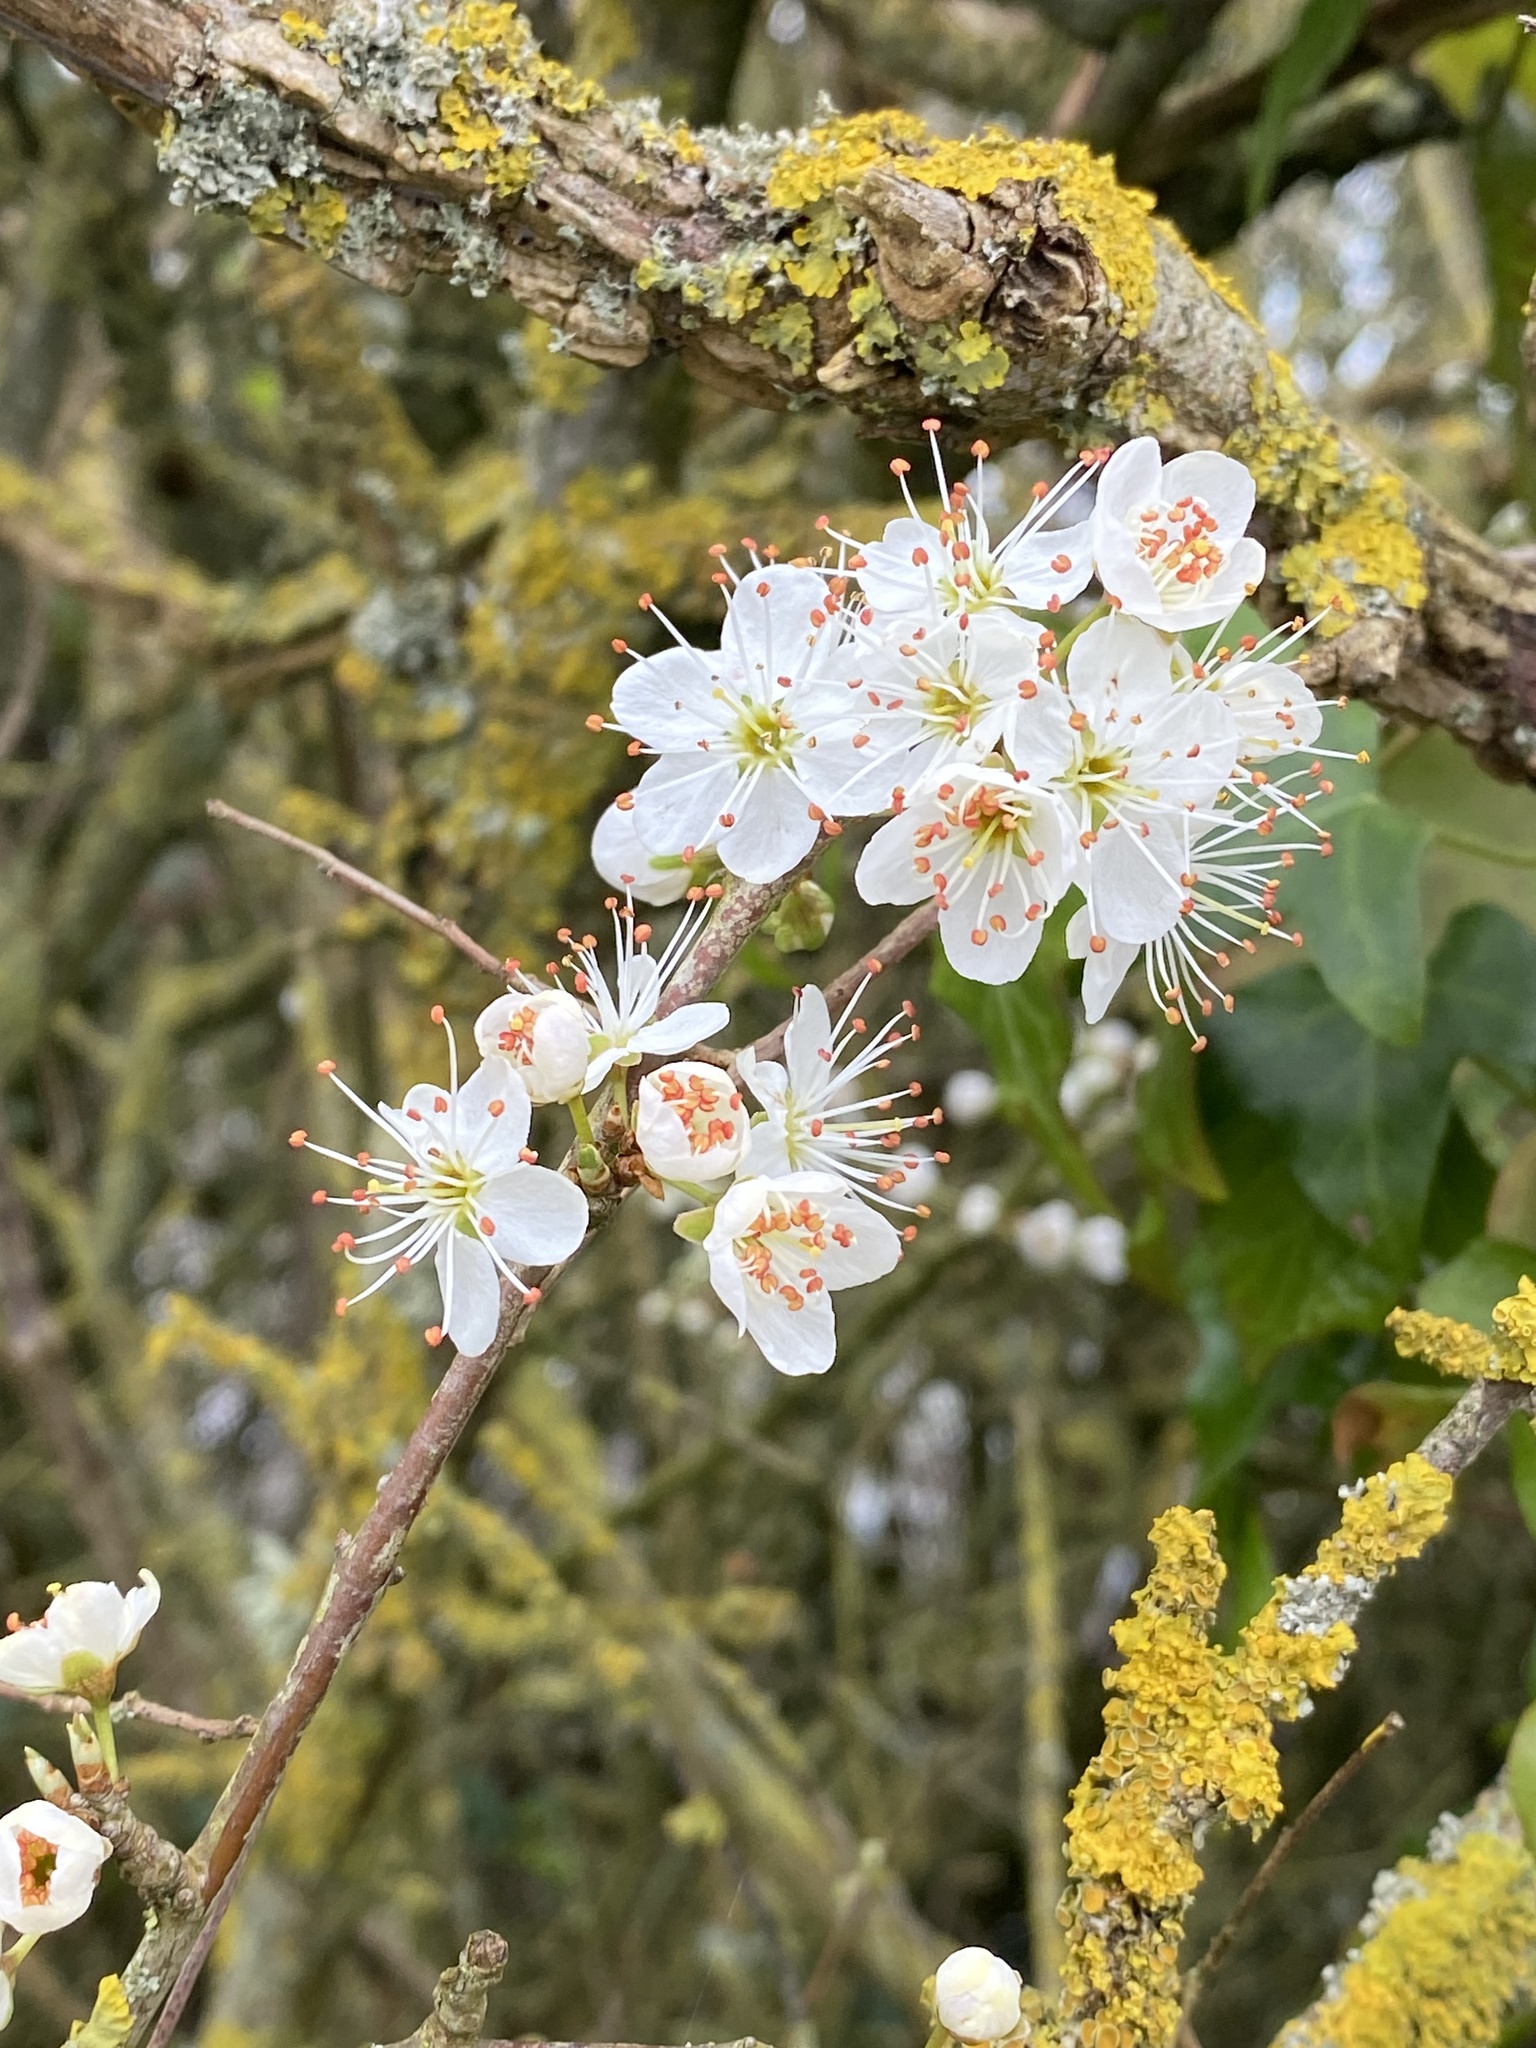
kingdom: Plantae
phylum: Tracheophyta
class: Magnoliopsida
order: Rosales
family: Rosaceae
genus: Prunus
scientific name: Prunus spinosa
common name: Blackthorn
